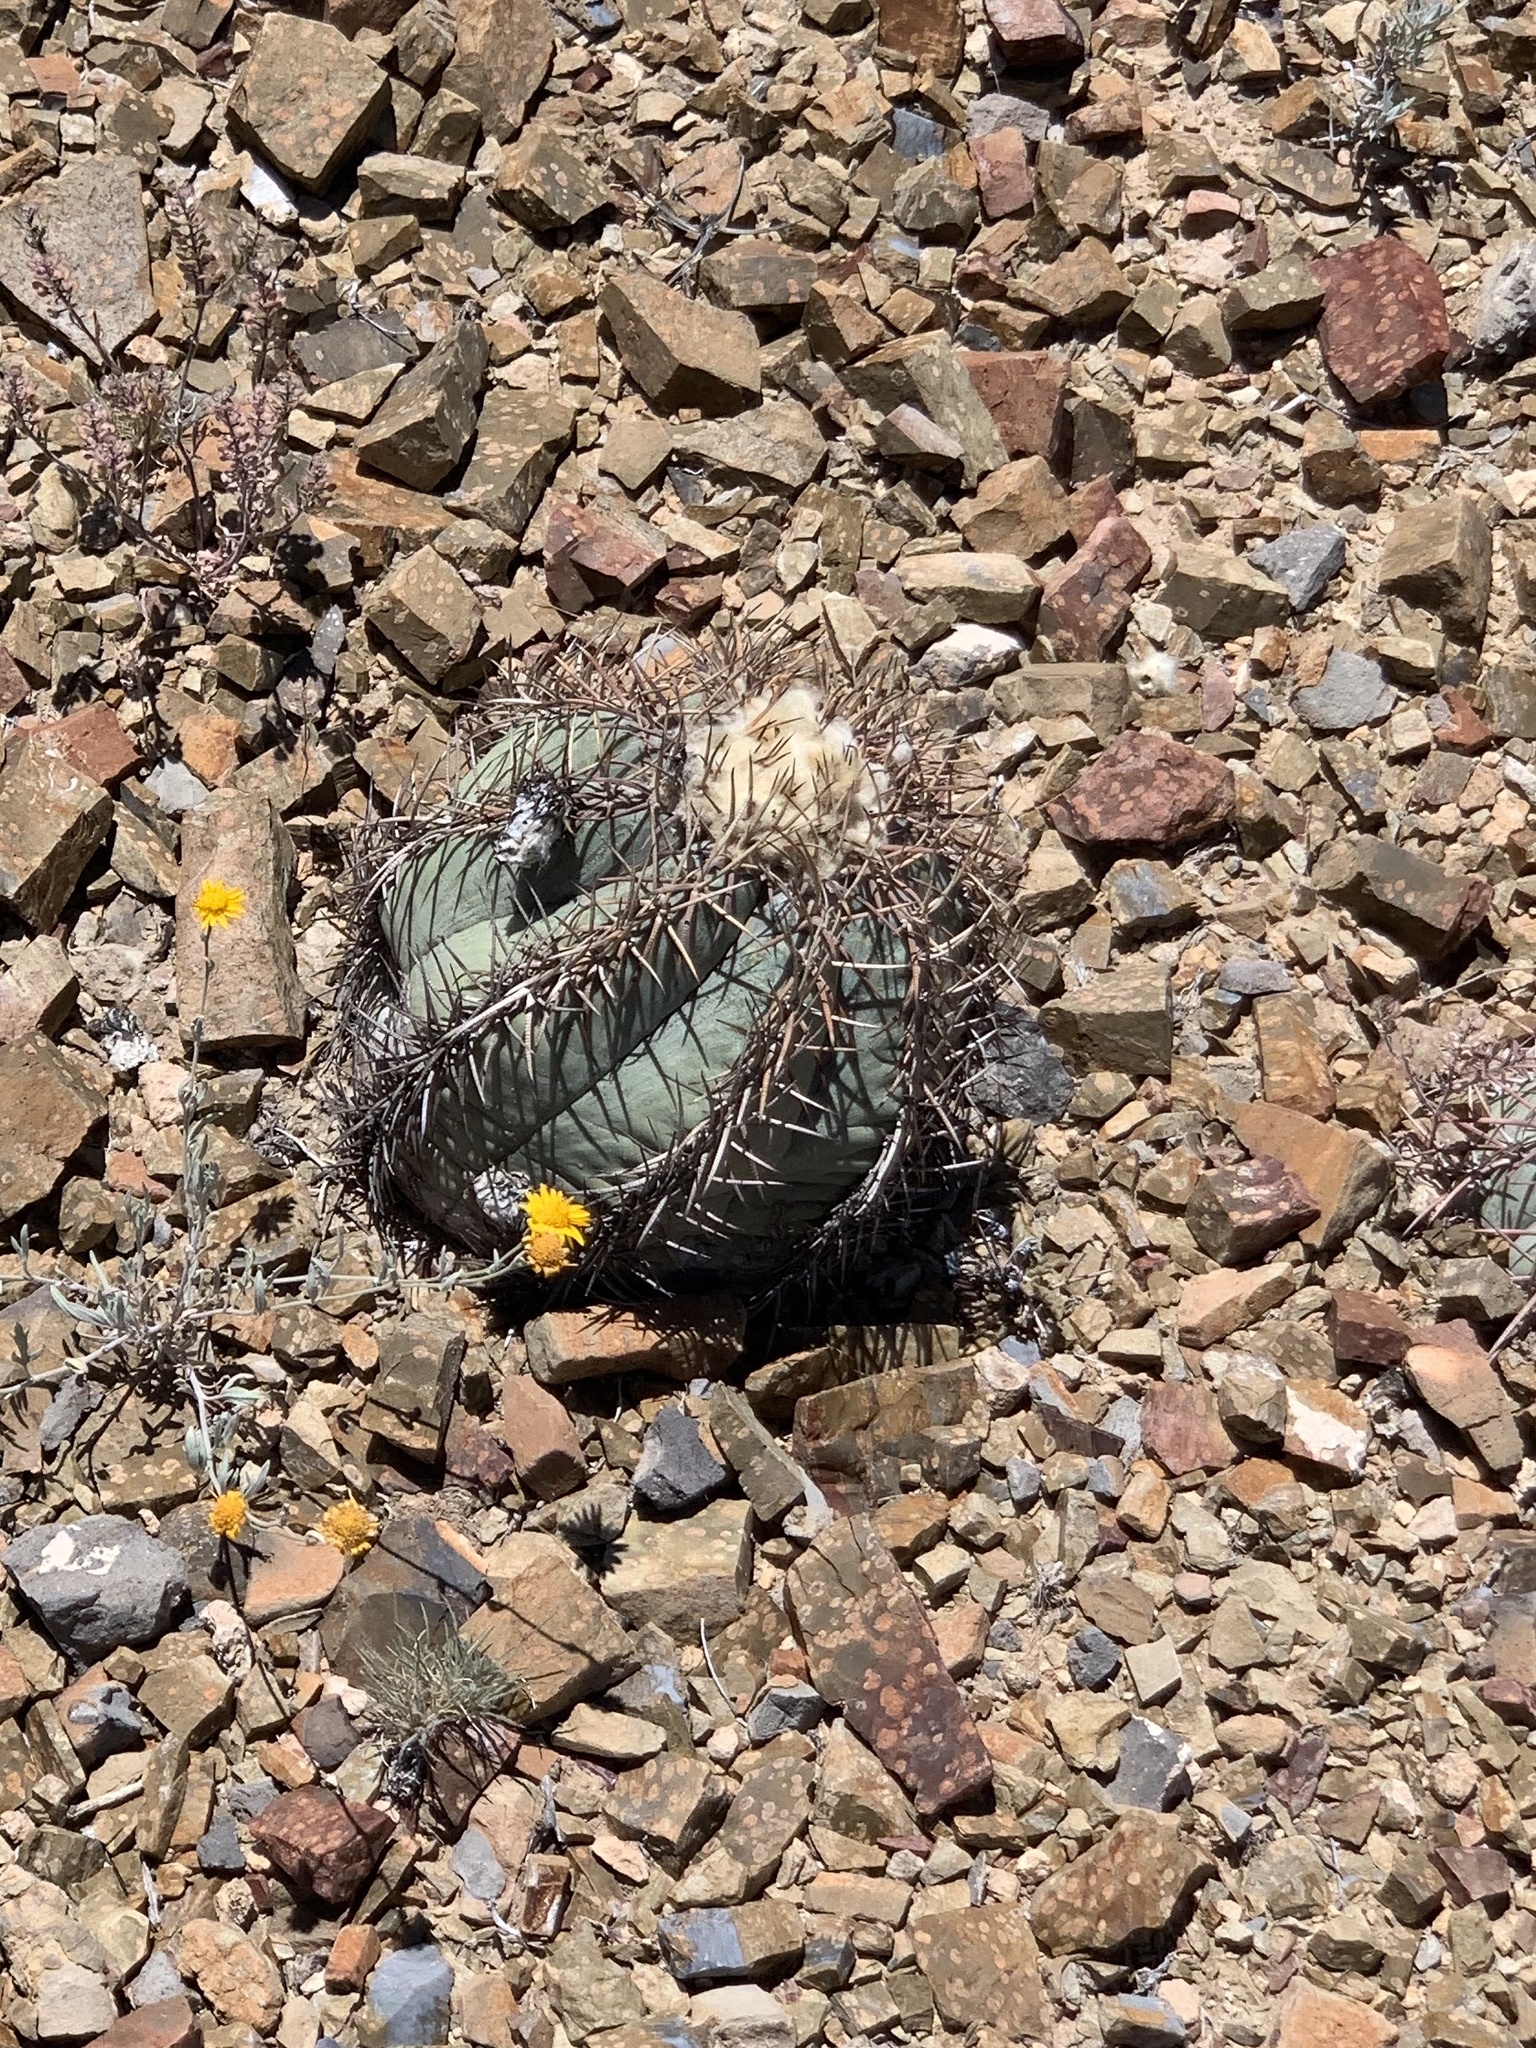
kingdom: Plantae
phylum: Tracheophyta
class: Magnoliopsida
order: Caryophyllales
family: Cactaceae
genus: Echinocactus
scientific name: Echinocactus horizonthalonius
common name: Devilshead
